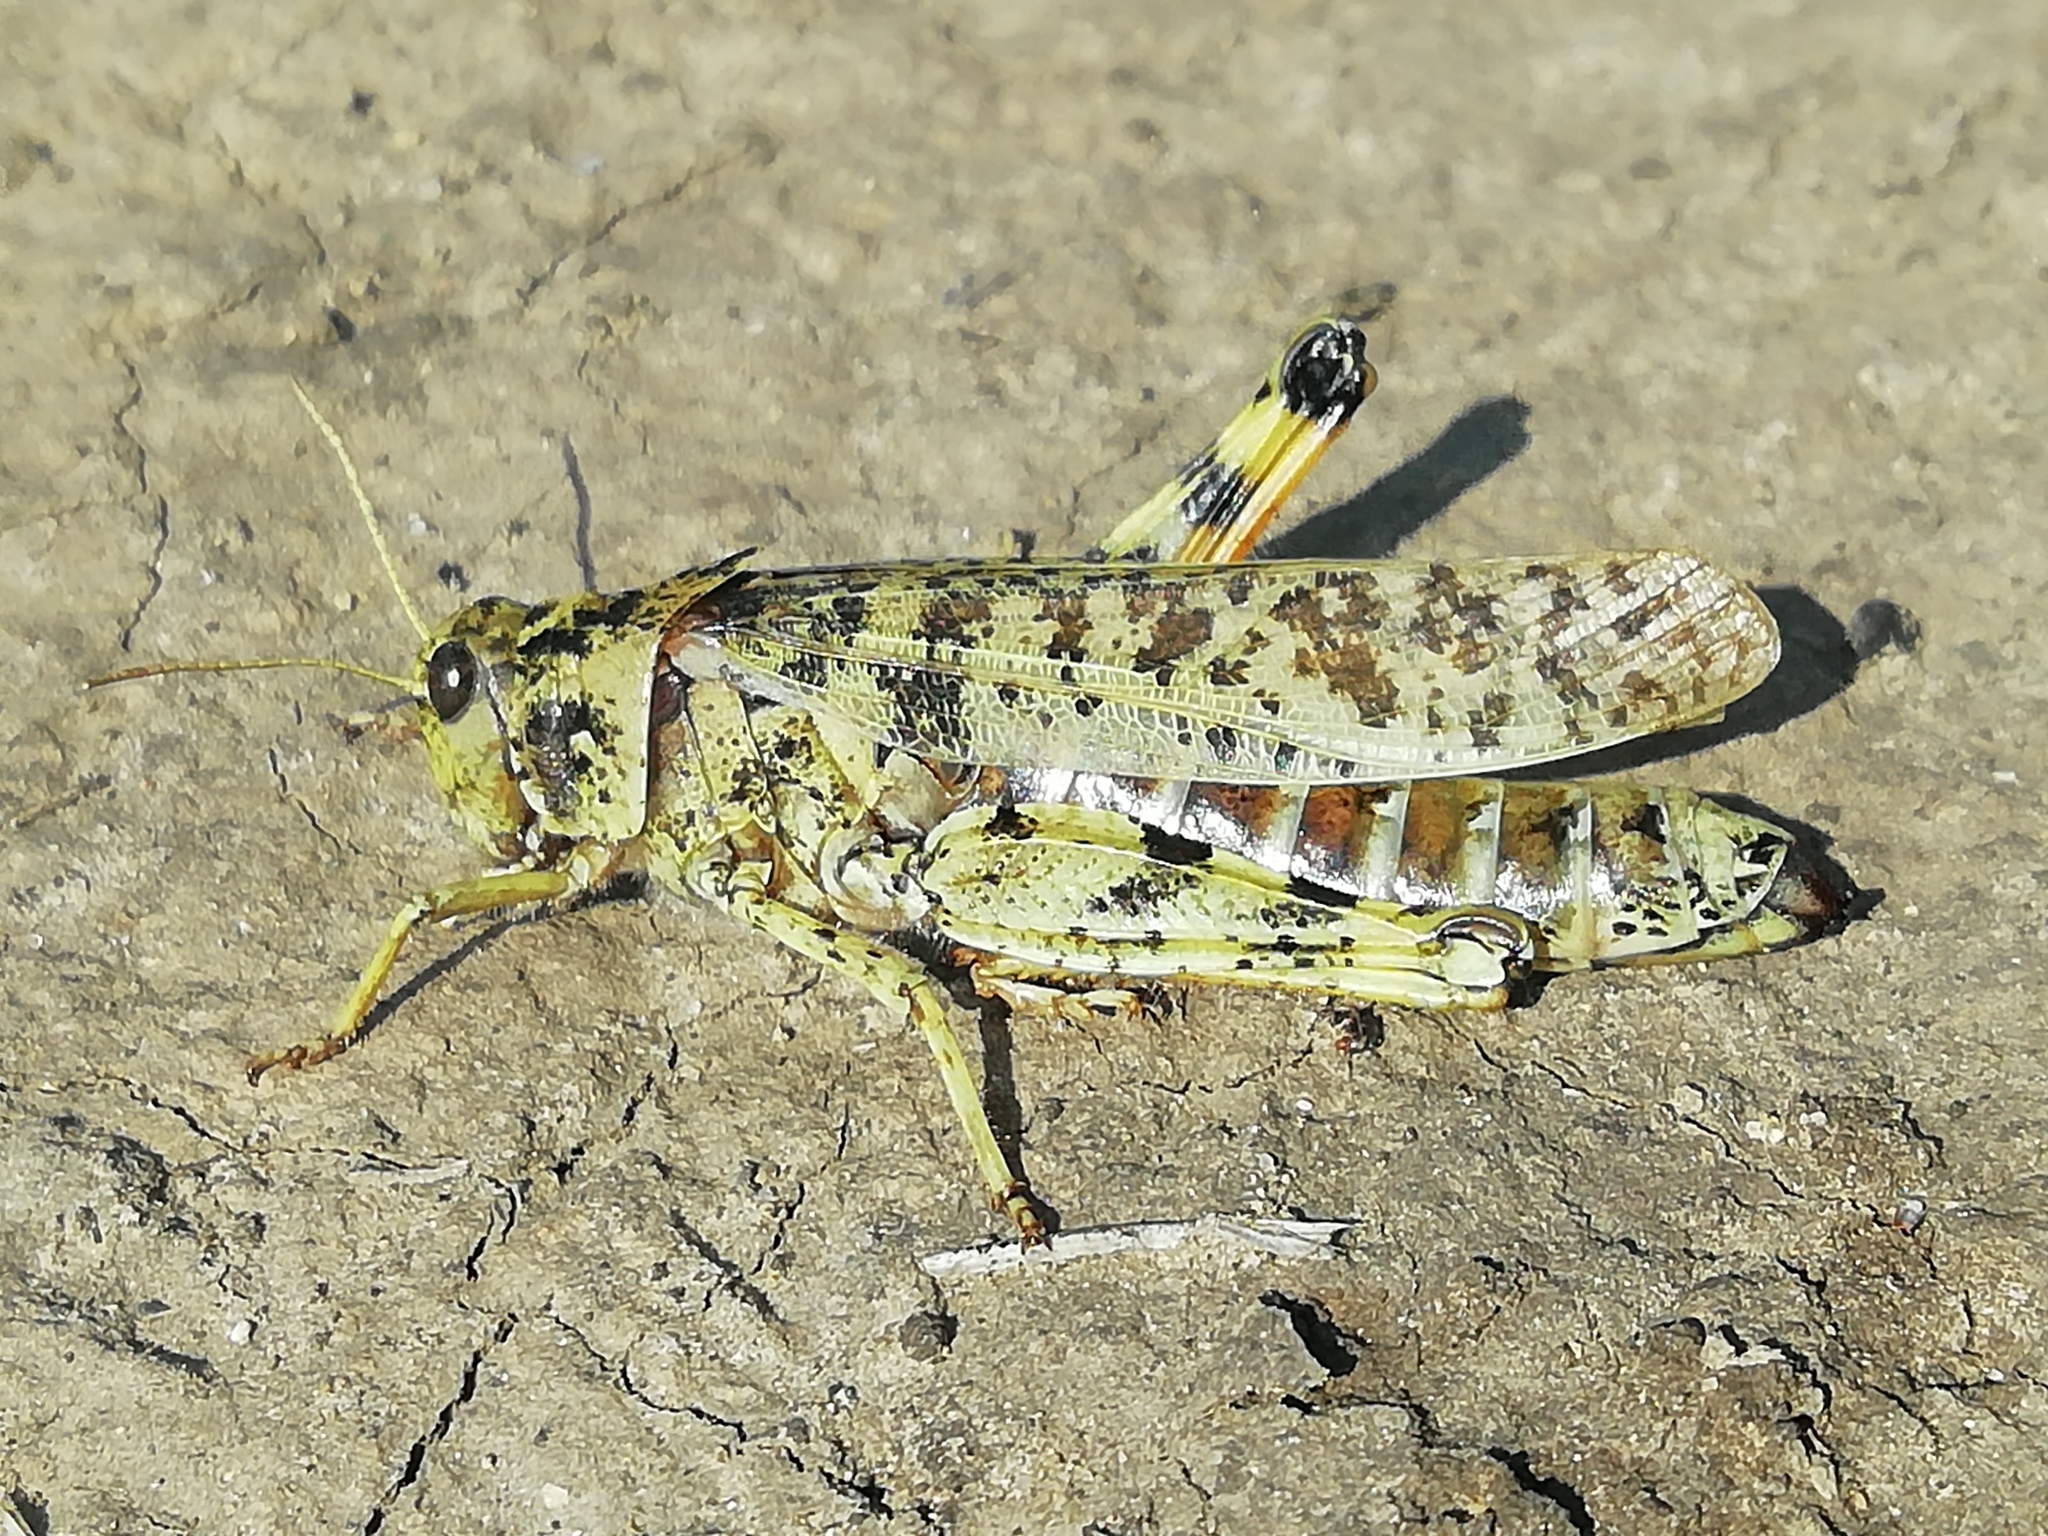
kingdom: Animalia
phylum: Arthropoda
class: Insecta
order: Orthoptera
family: Acrididae
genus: Angaracris
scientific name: Angaracris barabensis
